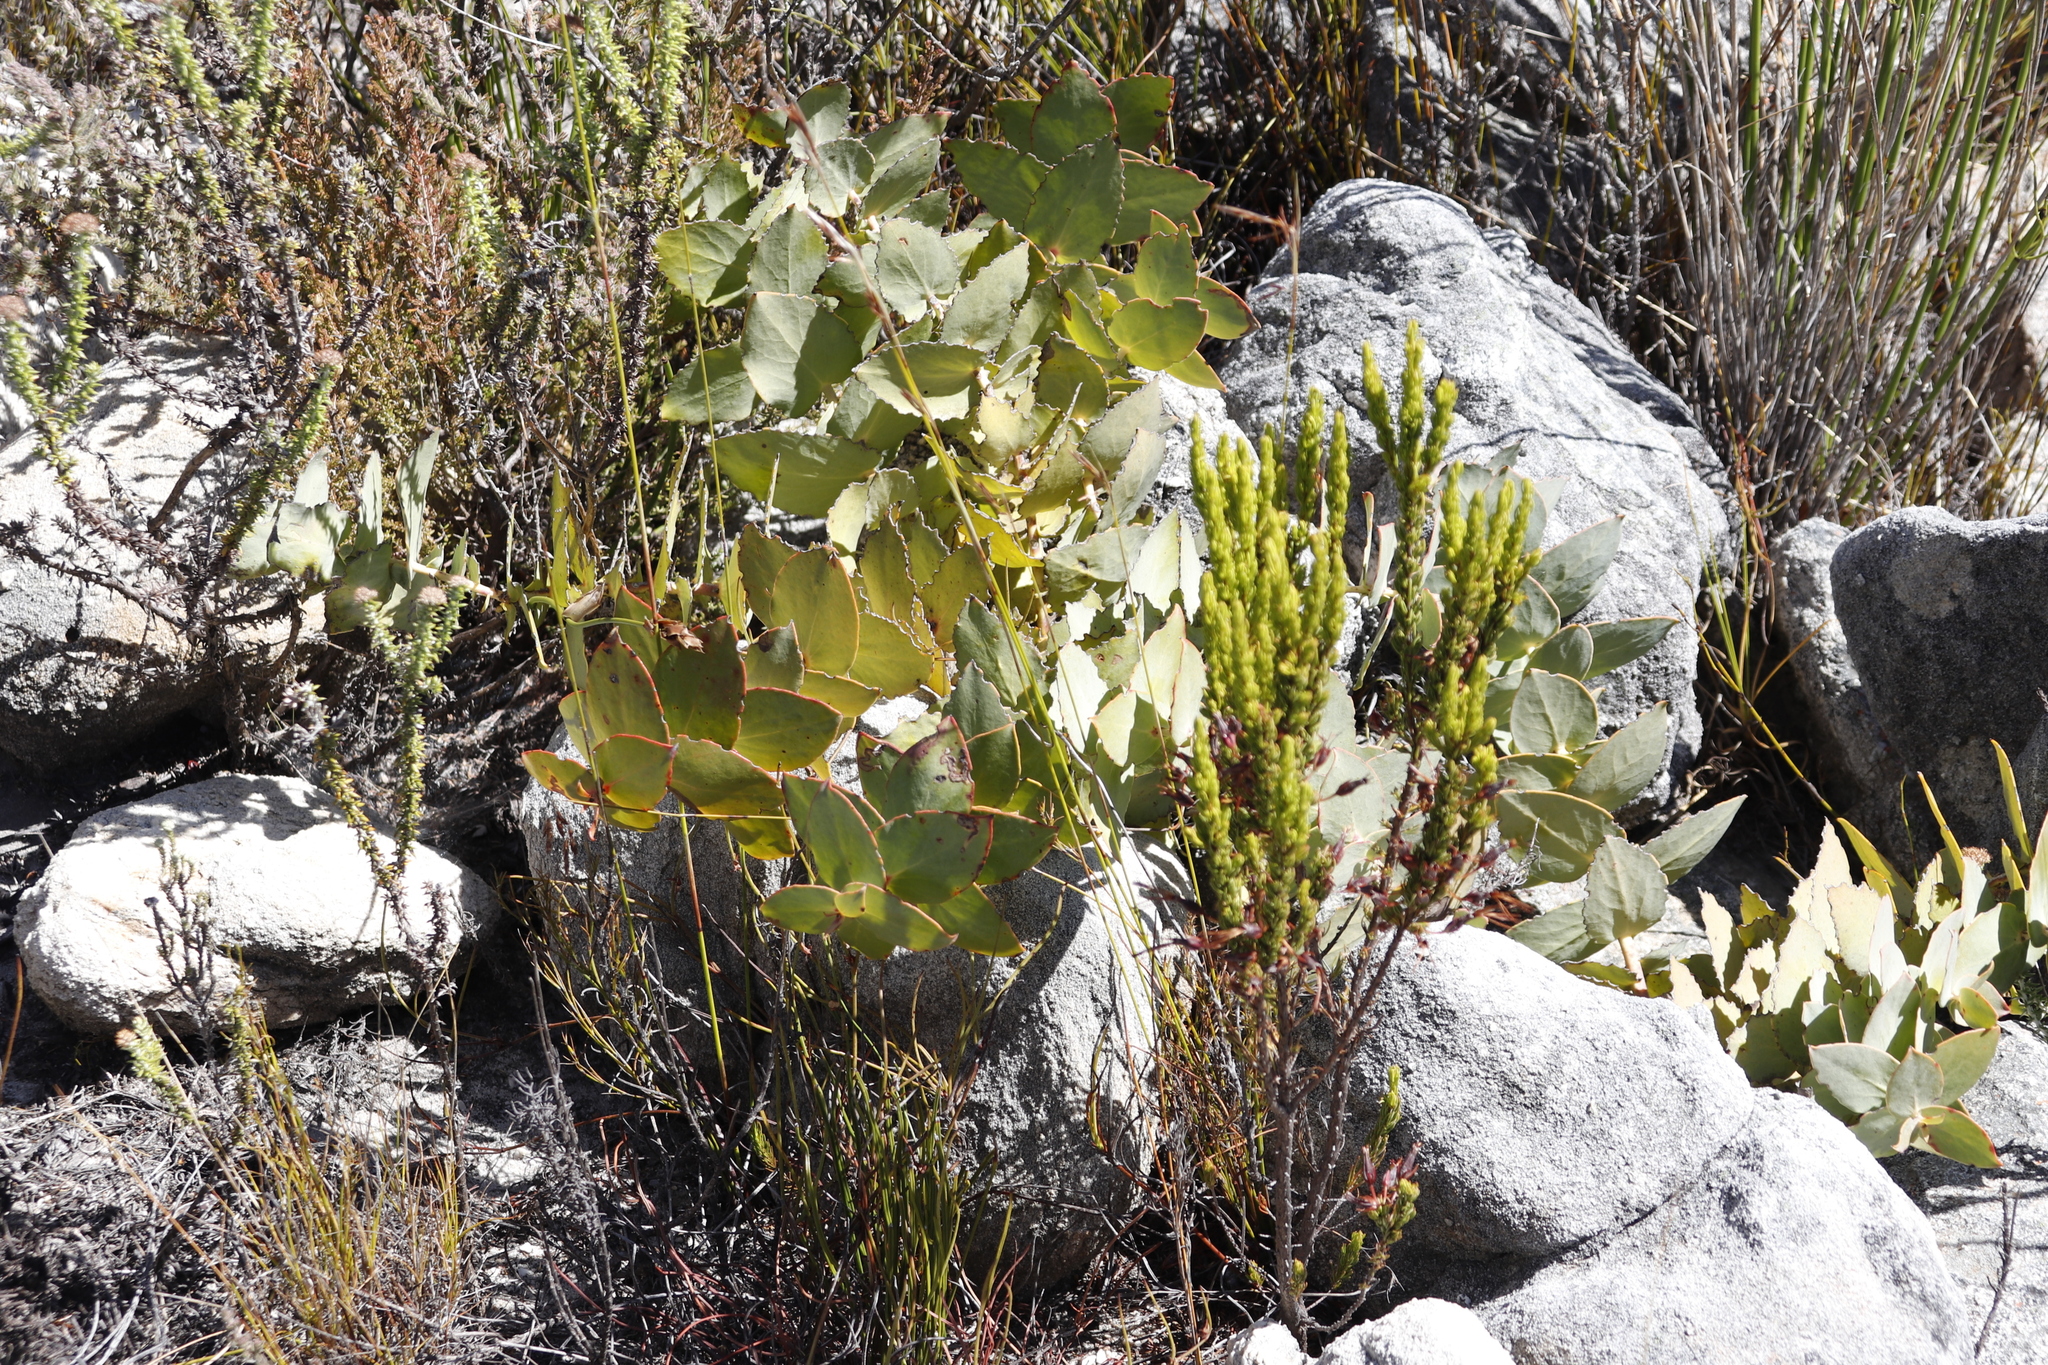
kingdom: Plantae
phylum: Tracheophyta
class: Magnoliopsida
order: Proteales
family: Proteaceae
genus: Protea
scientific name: Protea amplexicaulis
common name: Clasping-leaf sugarbush
